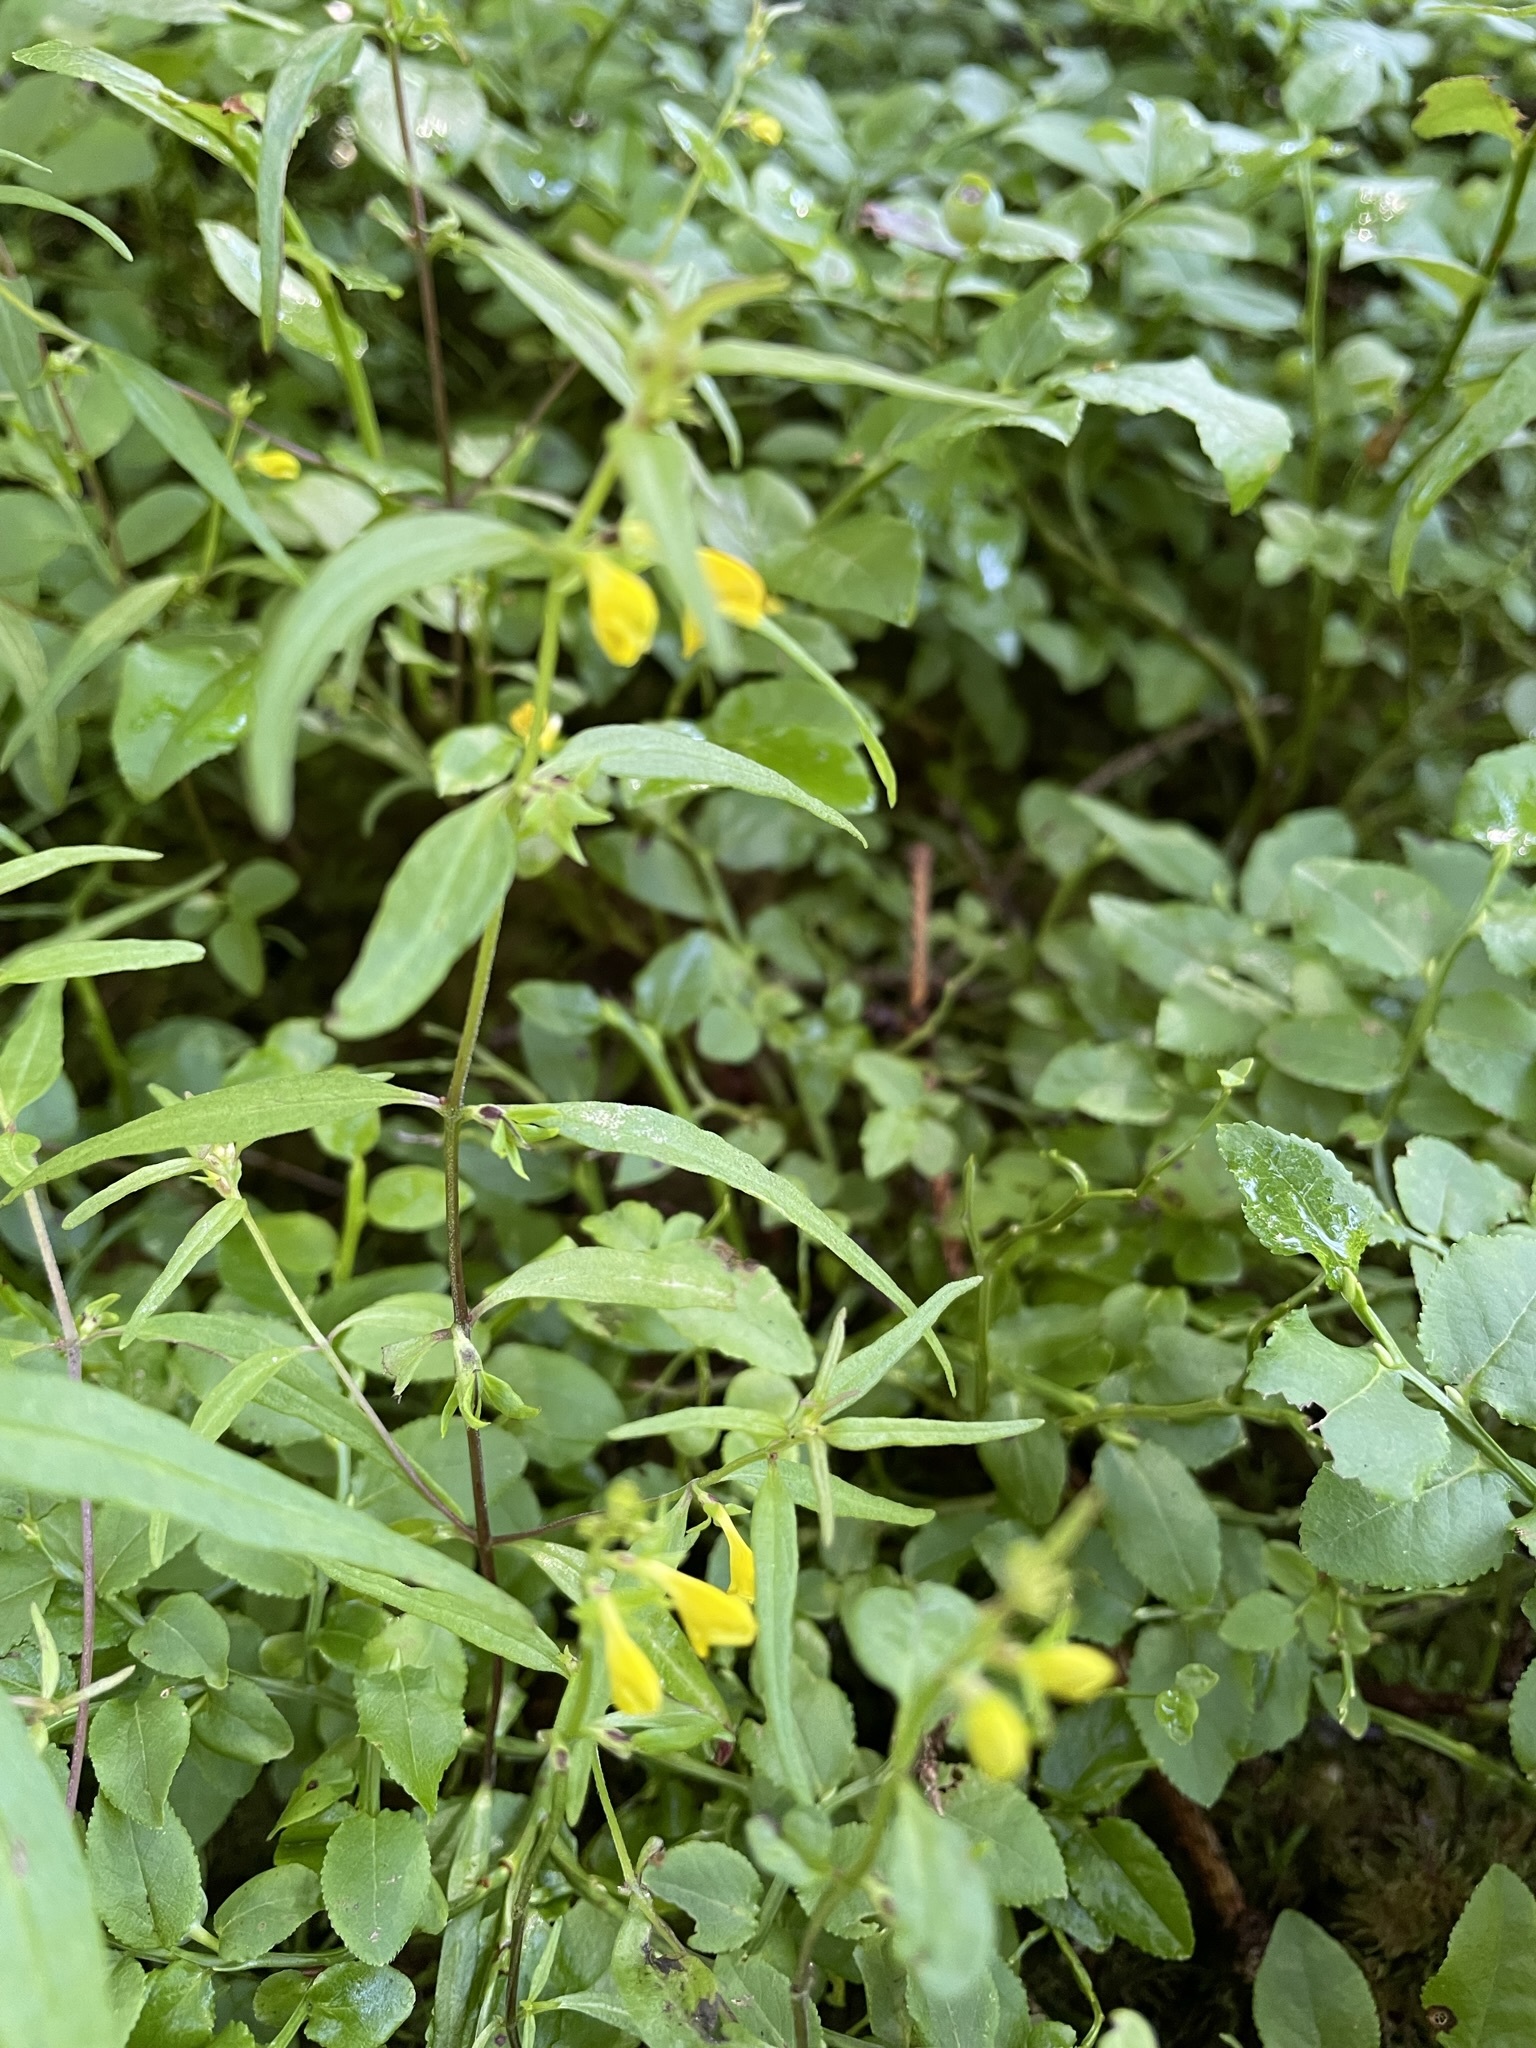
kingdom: Plantae
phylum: Tracheophyta
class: Magnoliopsida
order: Lamiales
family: Orobanchaceae
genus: Melampyrum
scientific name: Melampyrum sylvaticum
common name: Small cow-wheat
